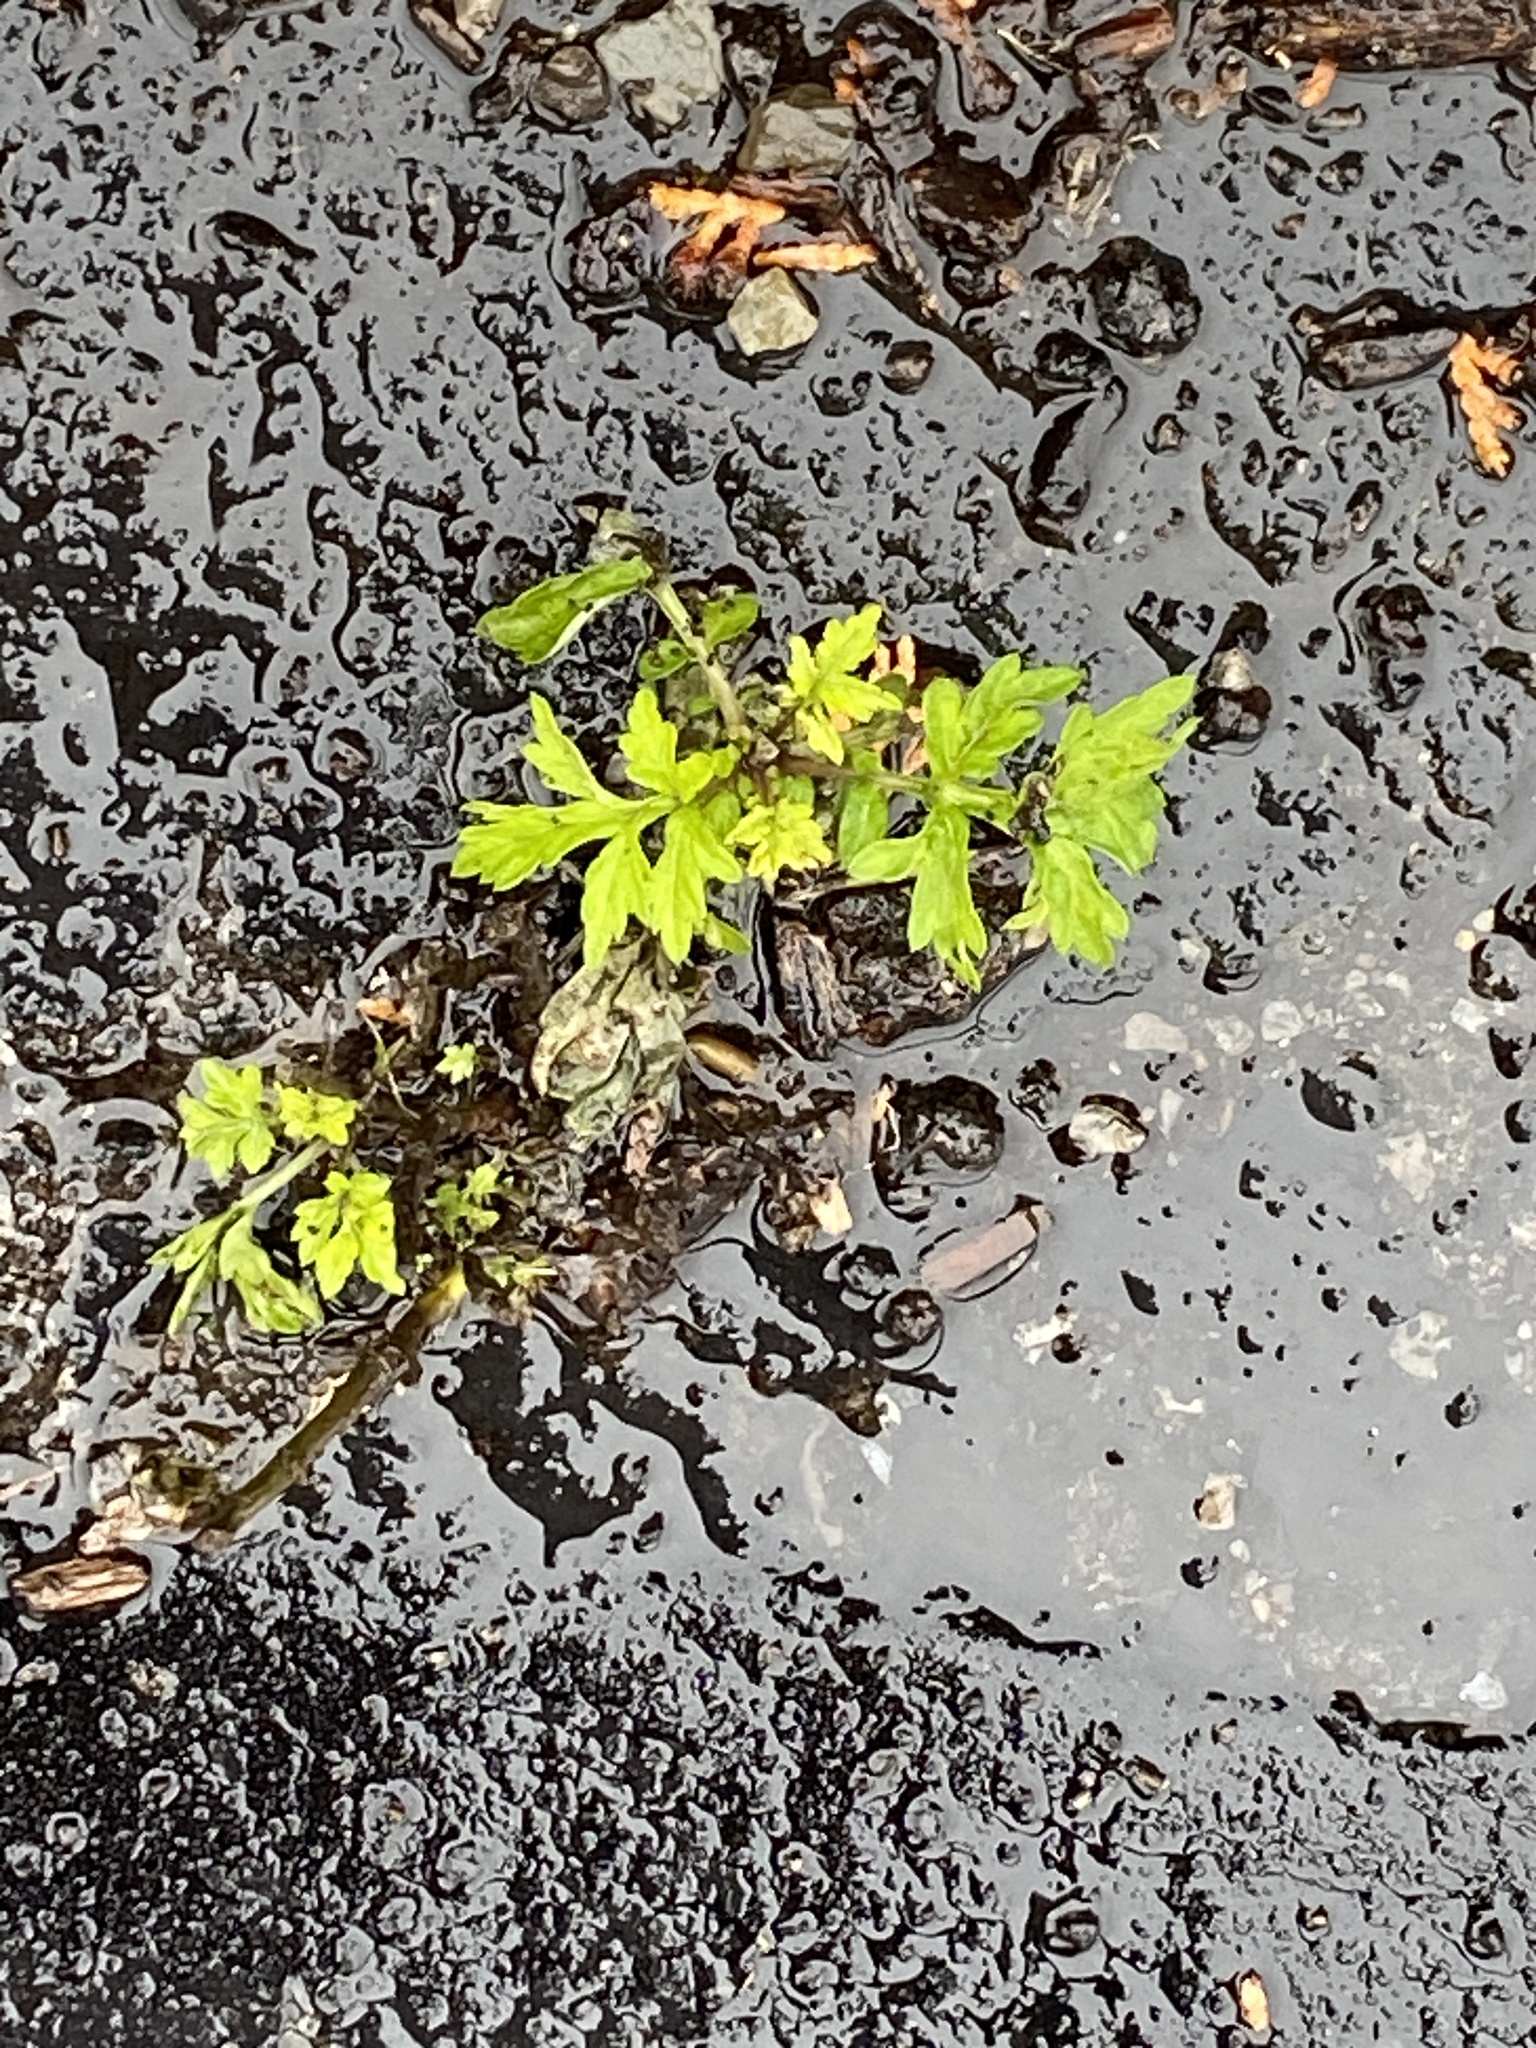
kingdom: Plantae
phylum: Tracheophyta
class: Magnoliopsida
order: Asterales
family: Asteraceae
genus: Artemisia
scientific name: Artemisia vulgaris
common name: Mugwort
